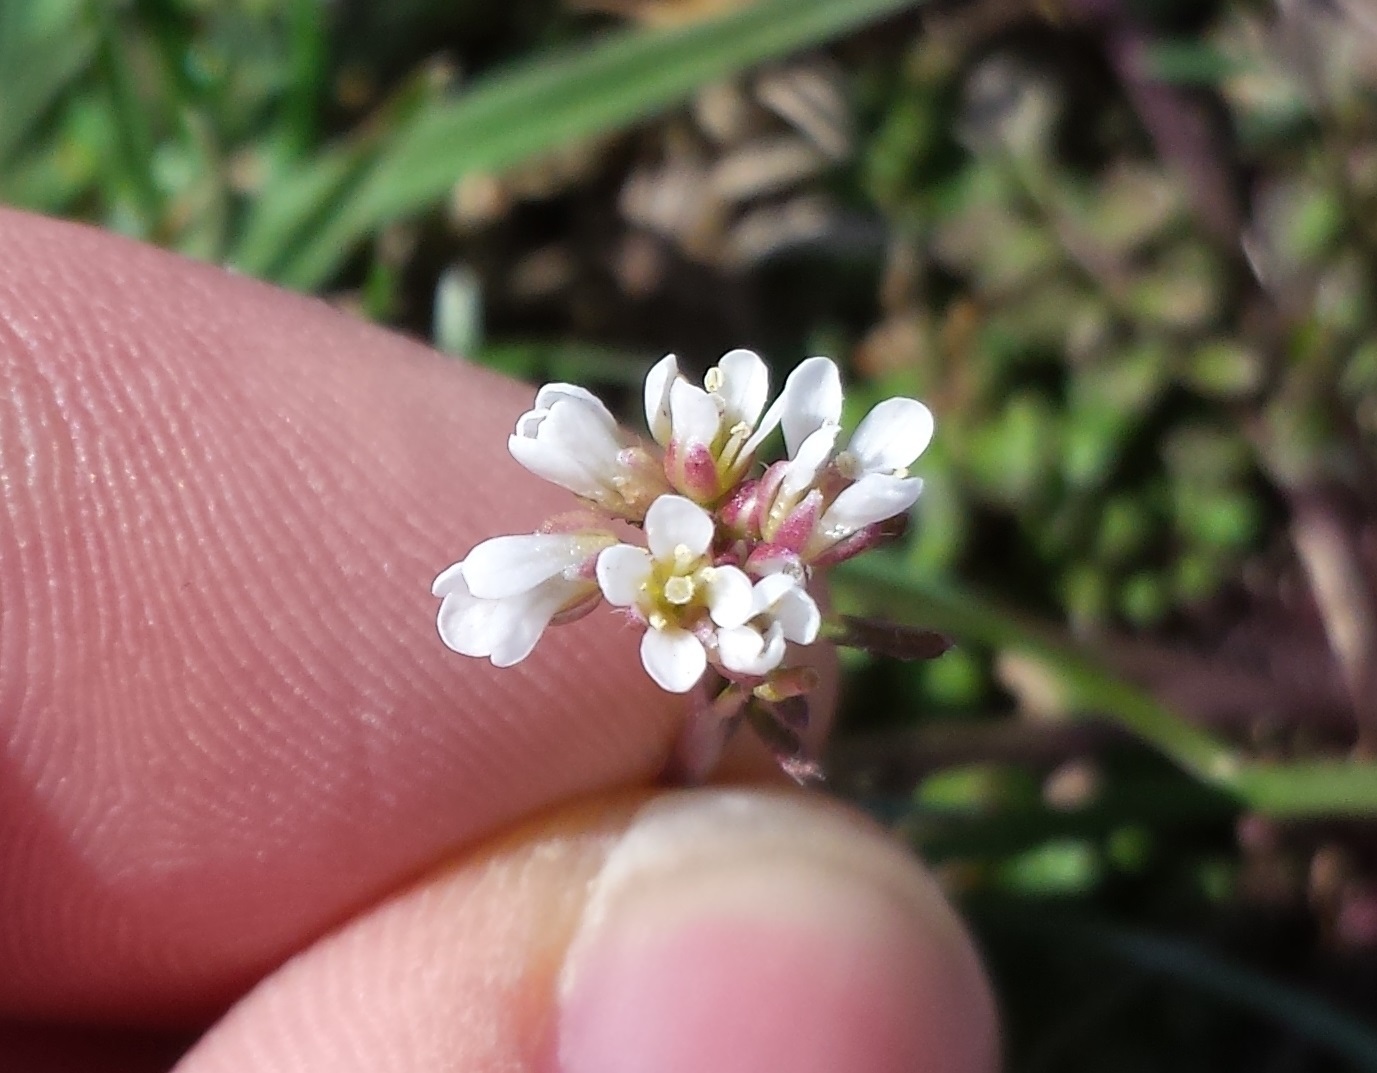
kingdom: Plantae
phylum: Tracheophyta
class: Magnoliopsida
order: Brassicales
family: Brassicaceae
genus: Cardamine
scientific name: Cardamine hirsuta
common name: Hairy bittercress
